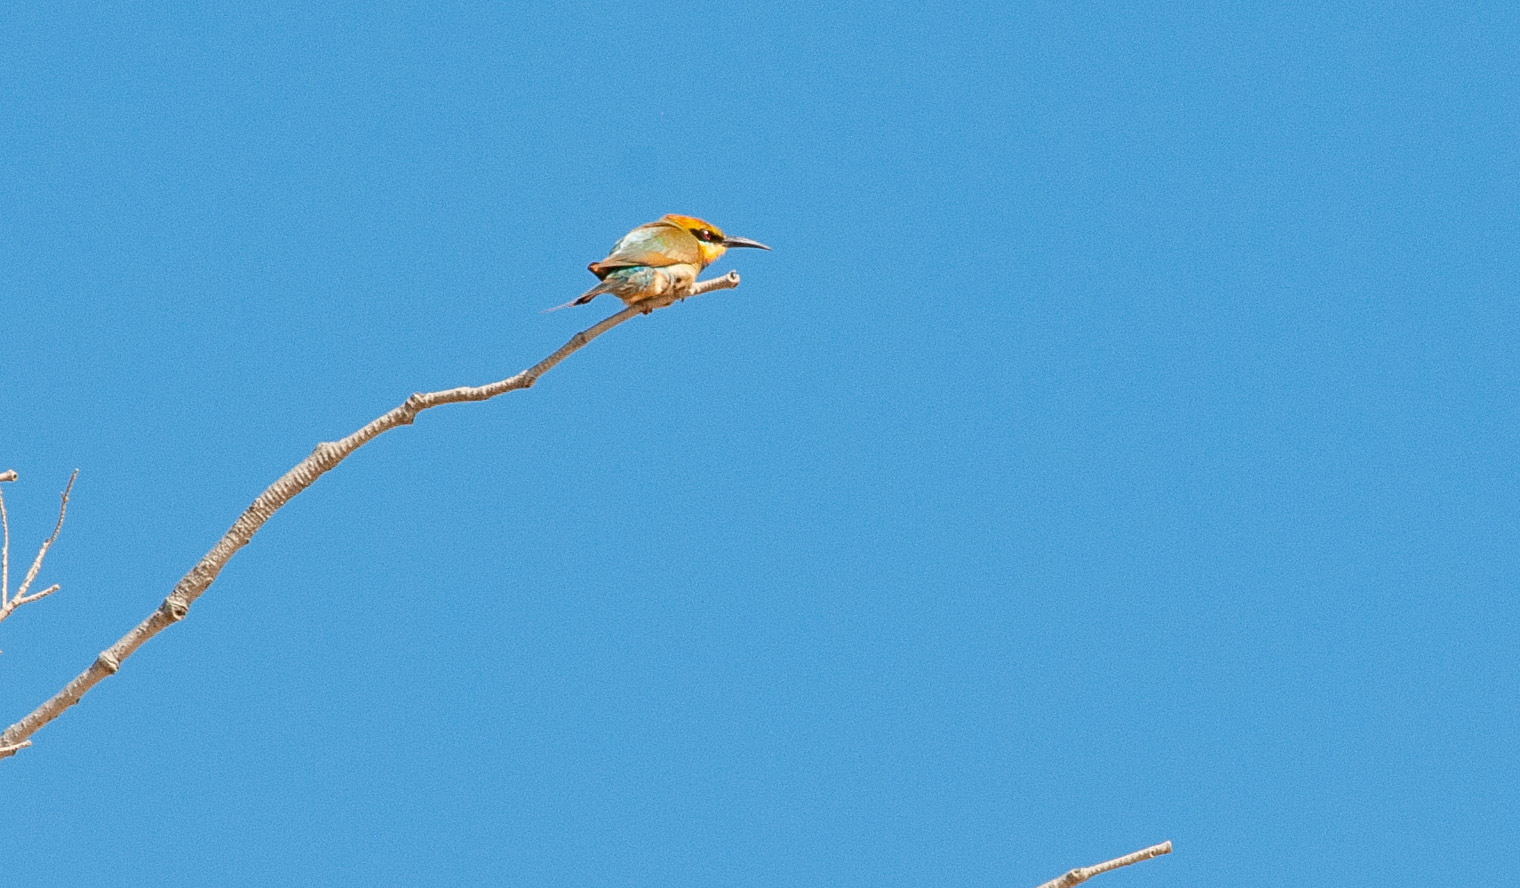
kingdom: Animalia
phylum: Chordata
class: Aves
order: Coraciiformes
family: Meropidae
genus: Merops
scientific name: Merops ornatus
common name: Rainbow bee-eater
